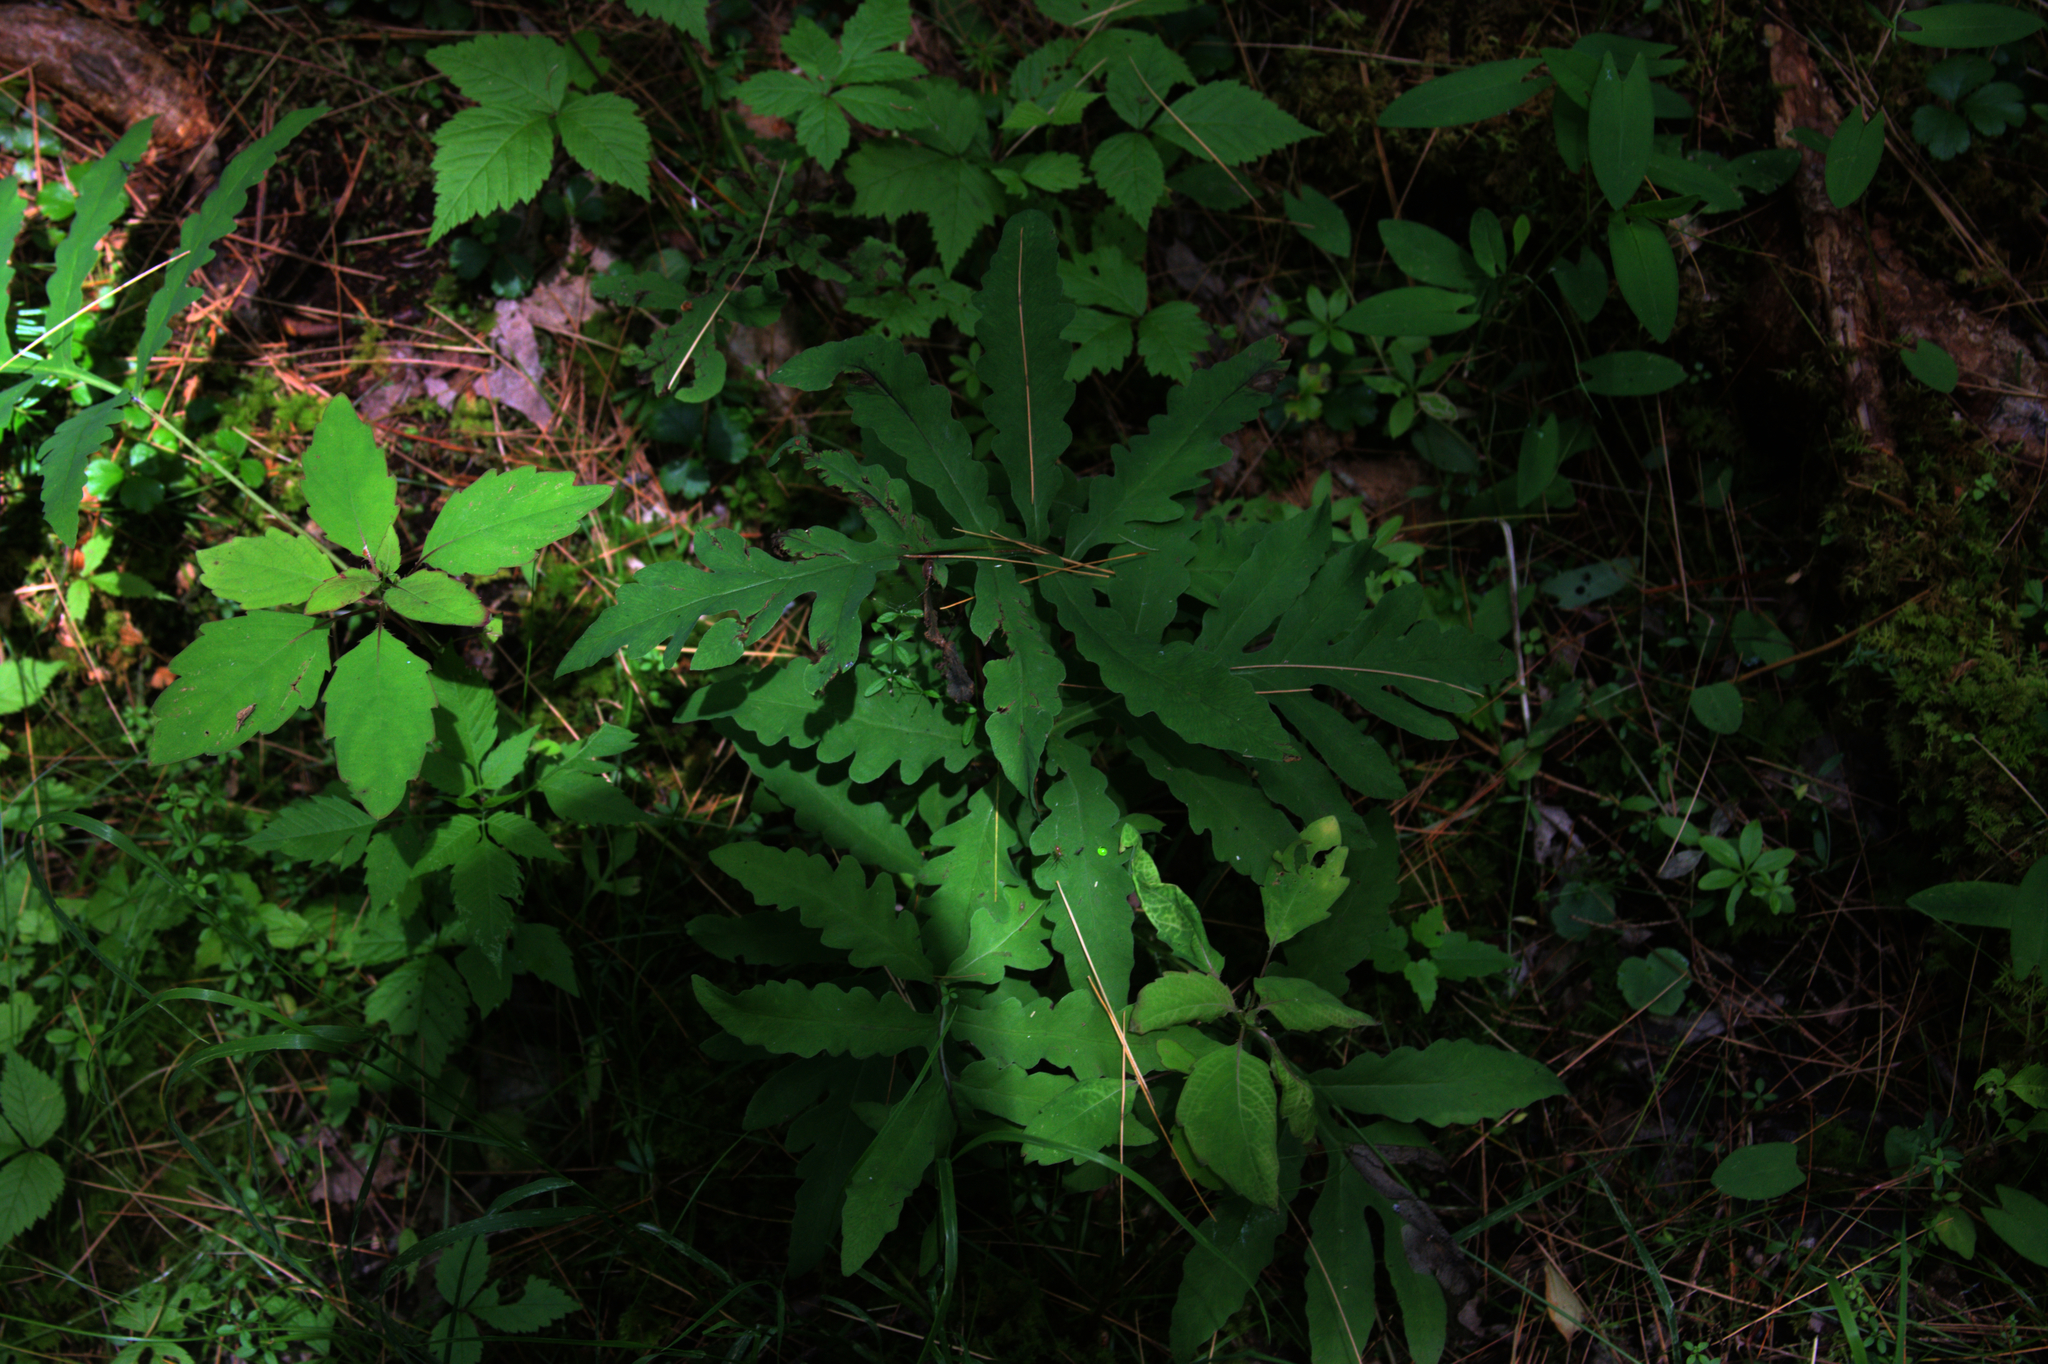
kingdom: Plantae
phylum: Tracheophyta
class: Polypodiopsida
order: Polypodiales
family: Onocleaceae
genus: Onoclea
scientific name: Onoclea sensibilis
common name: Sensitive fern
